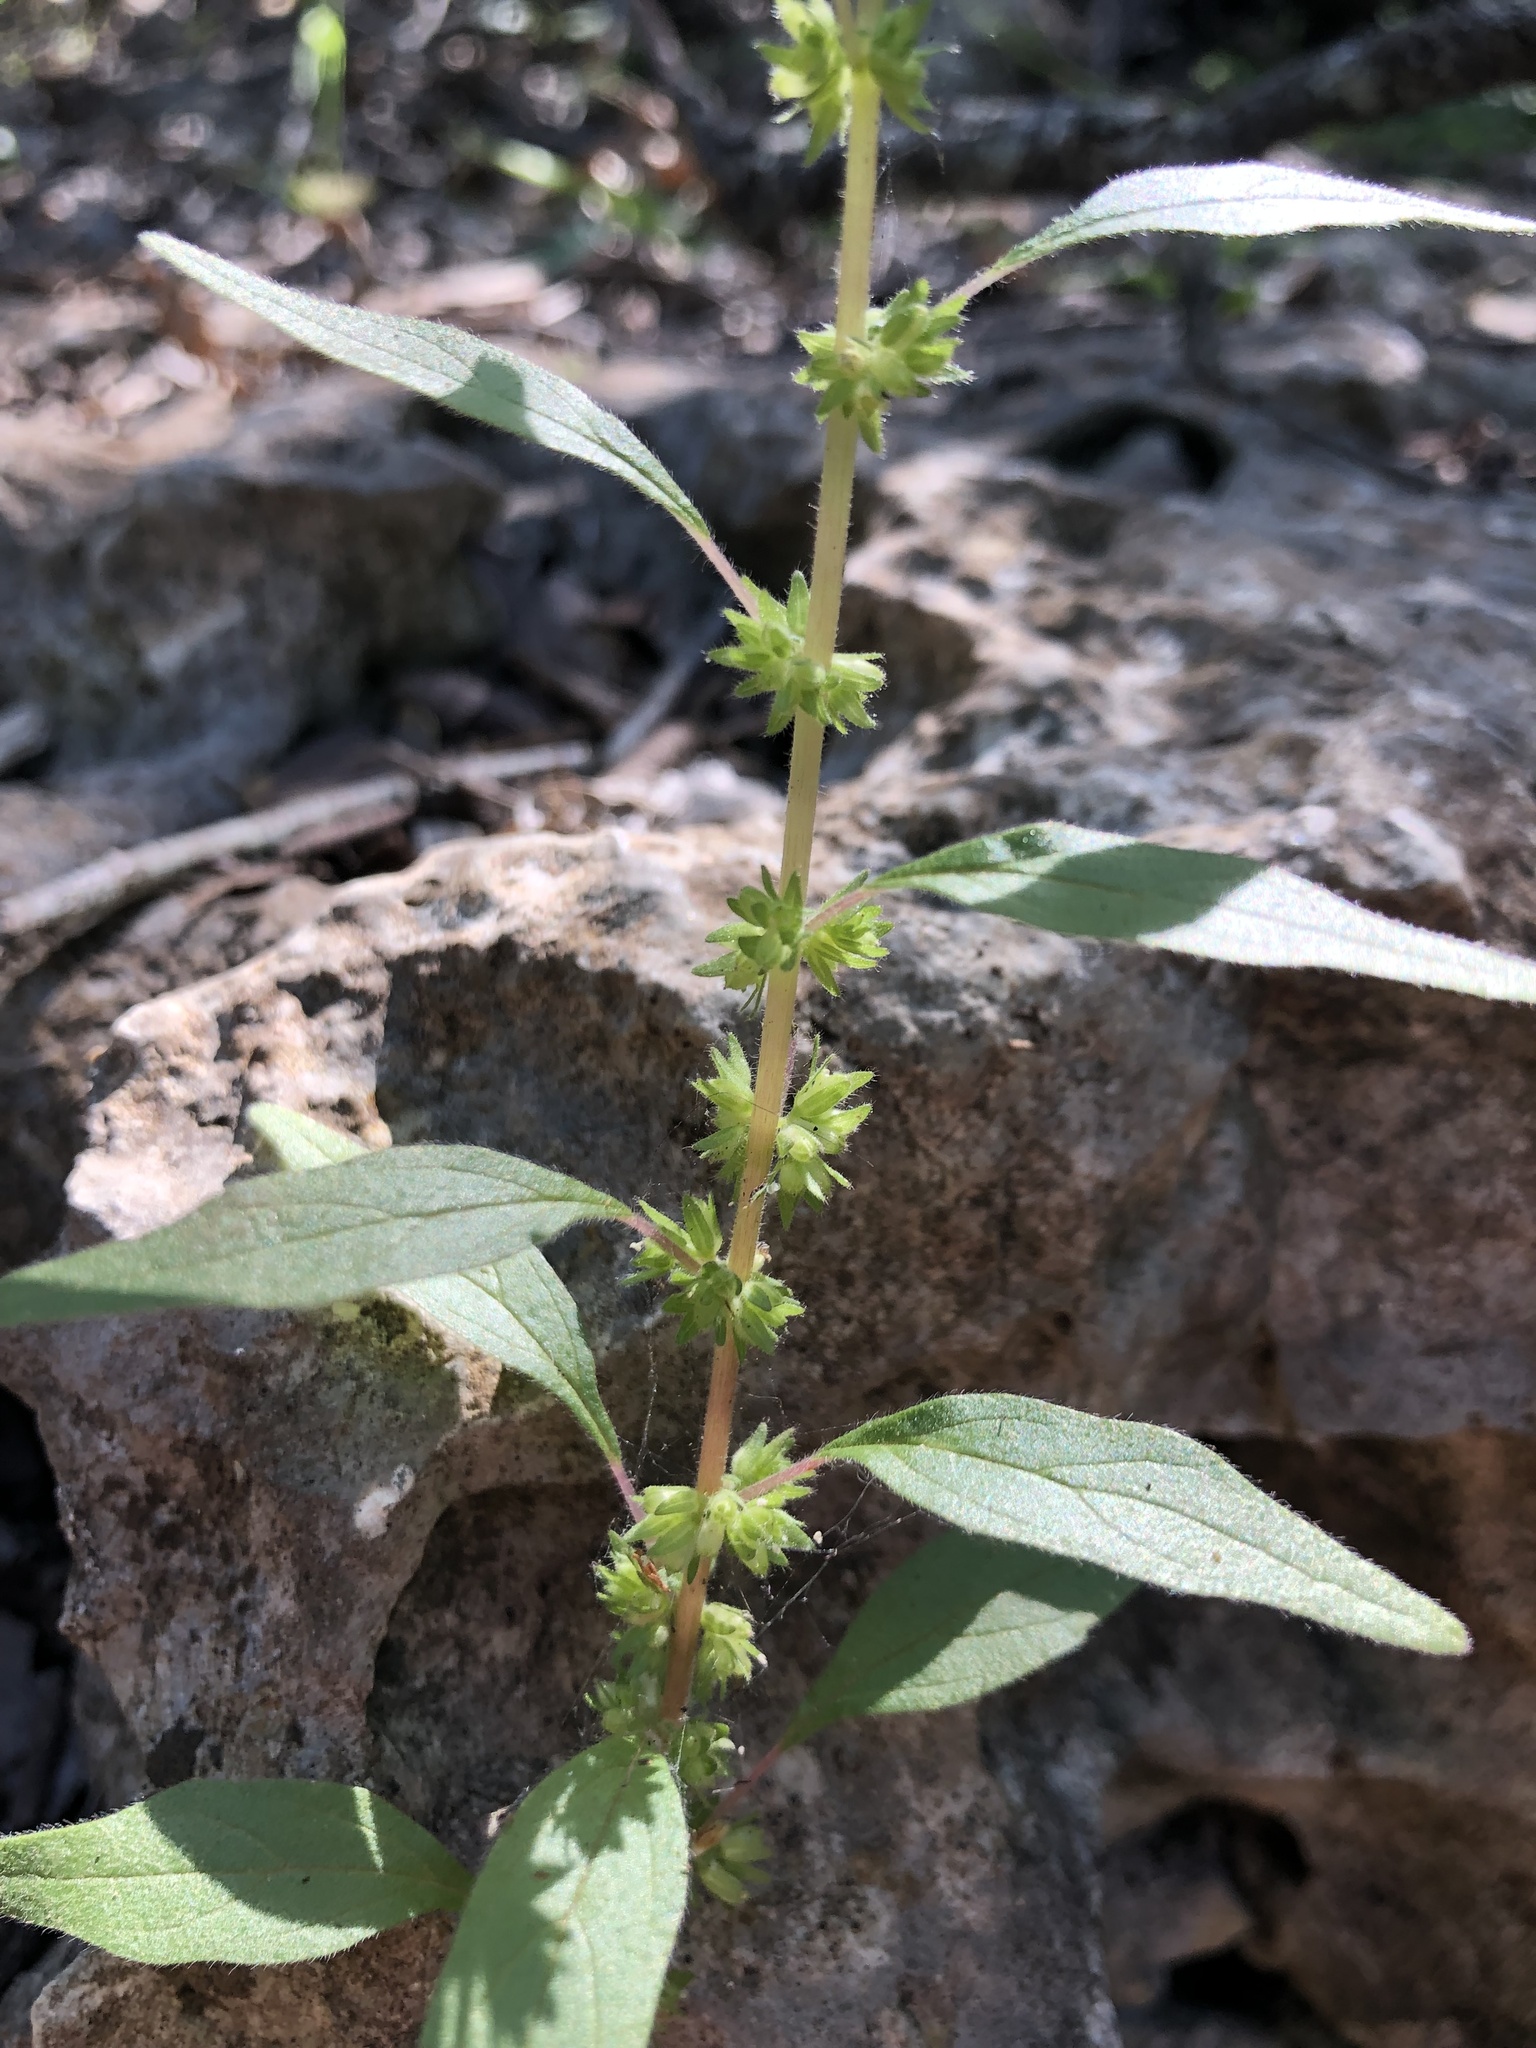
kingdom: Plantae
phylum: Tracheophyta
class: Magnoliopsida
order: Rosales
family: Urticaceae
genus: Parietaria
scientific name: Parietaria pensylvanica
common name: Pennsylvania pellitory
